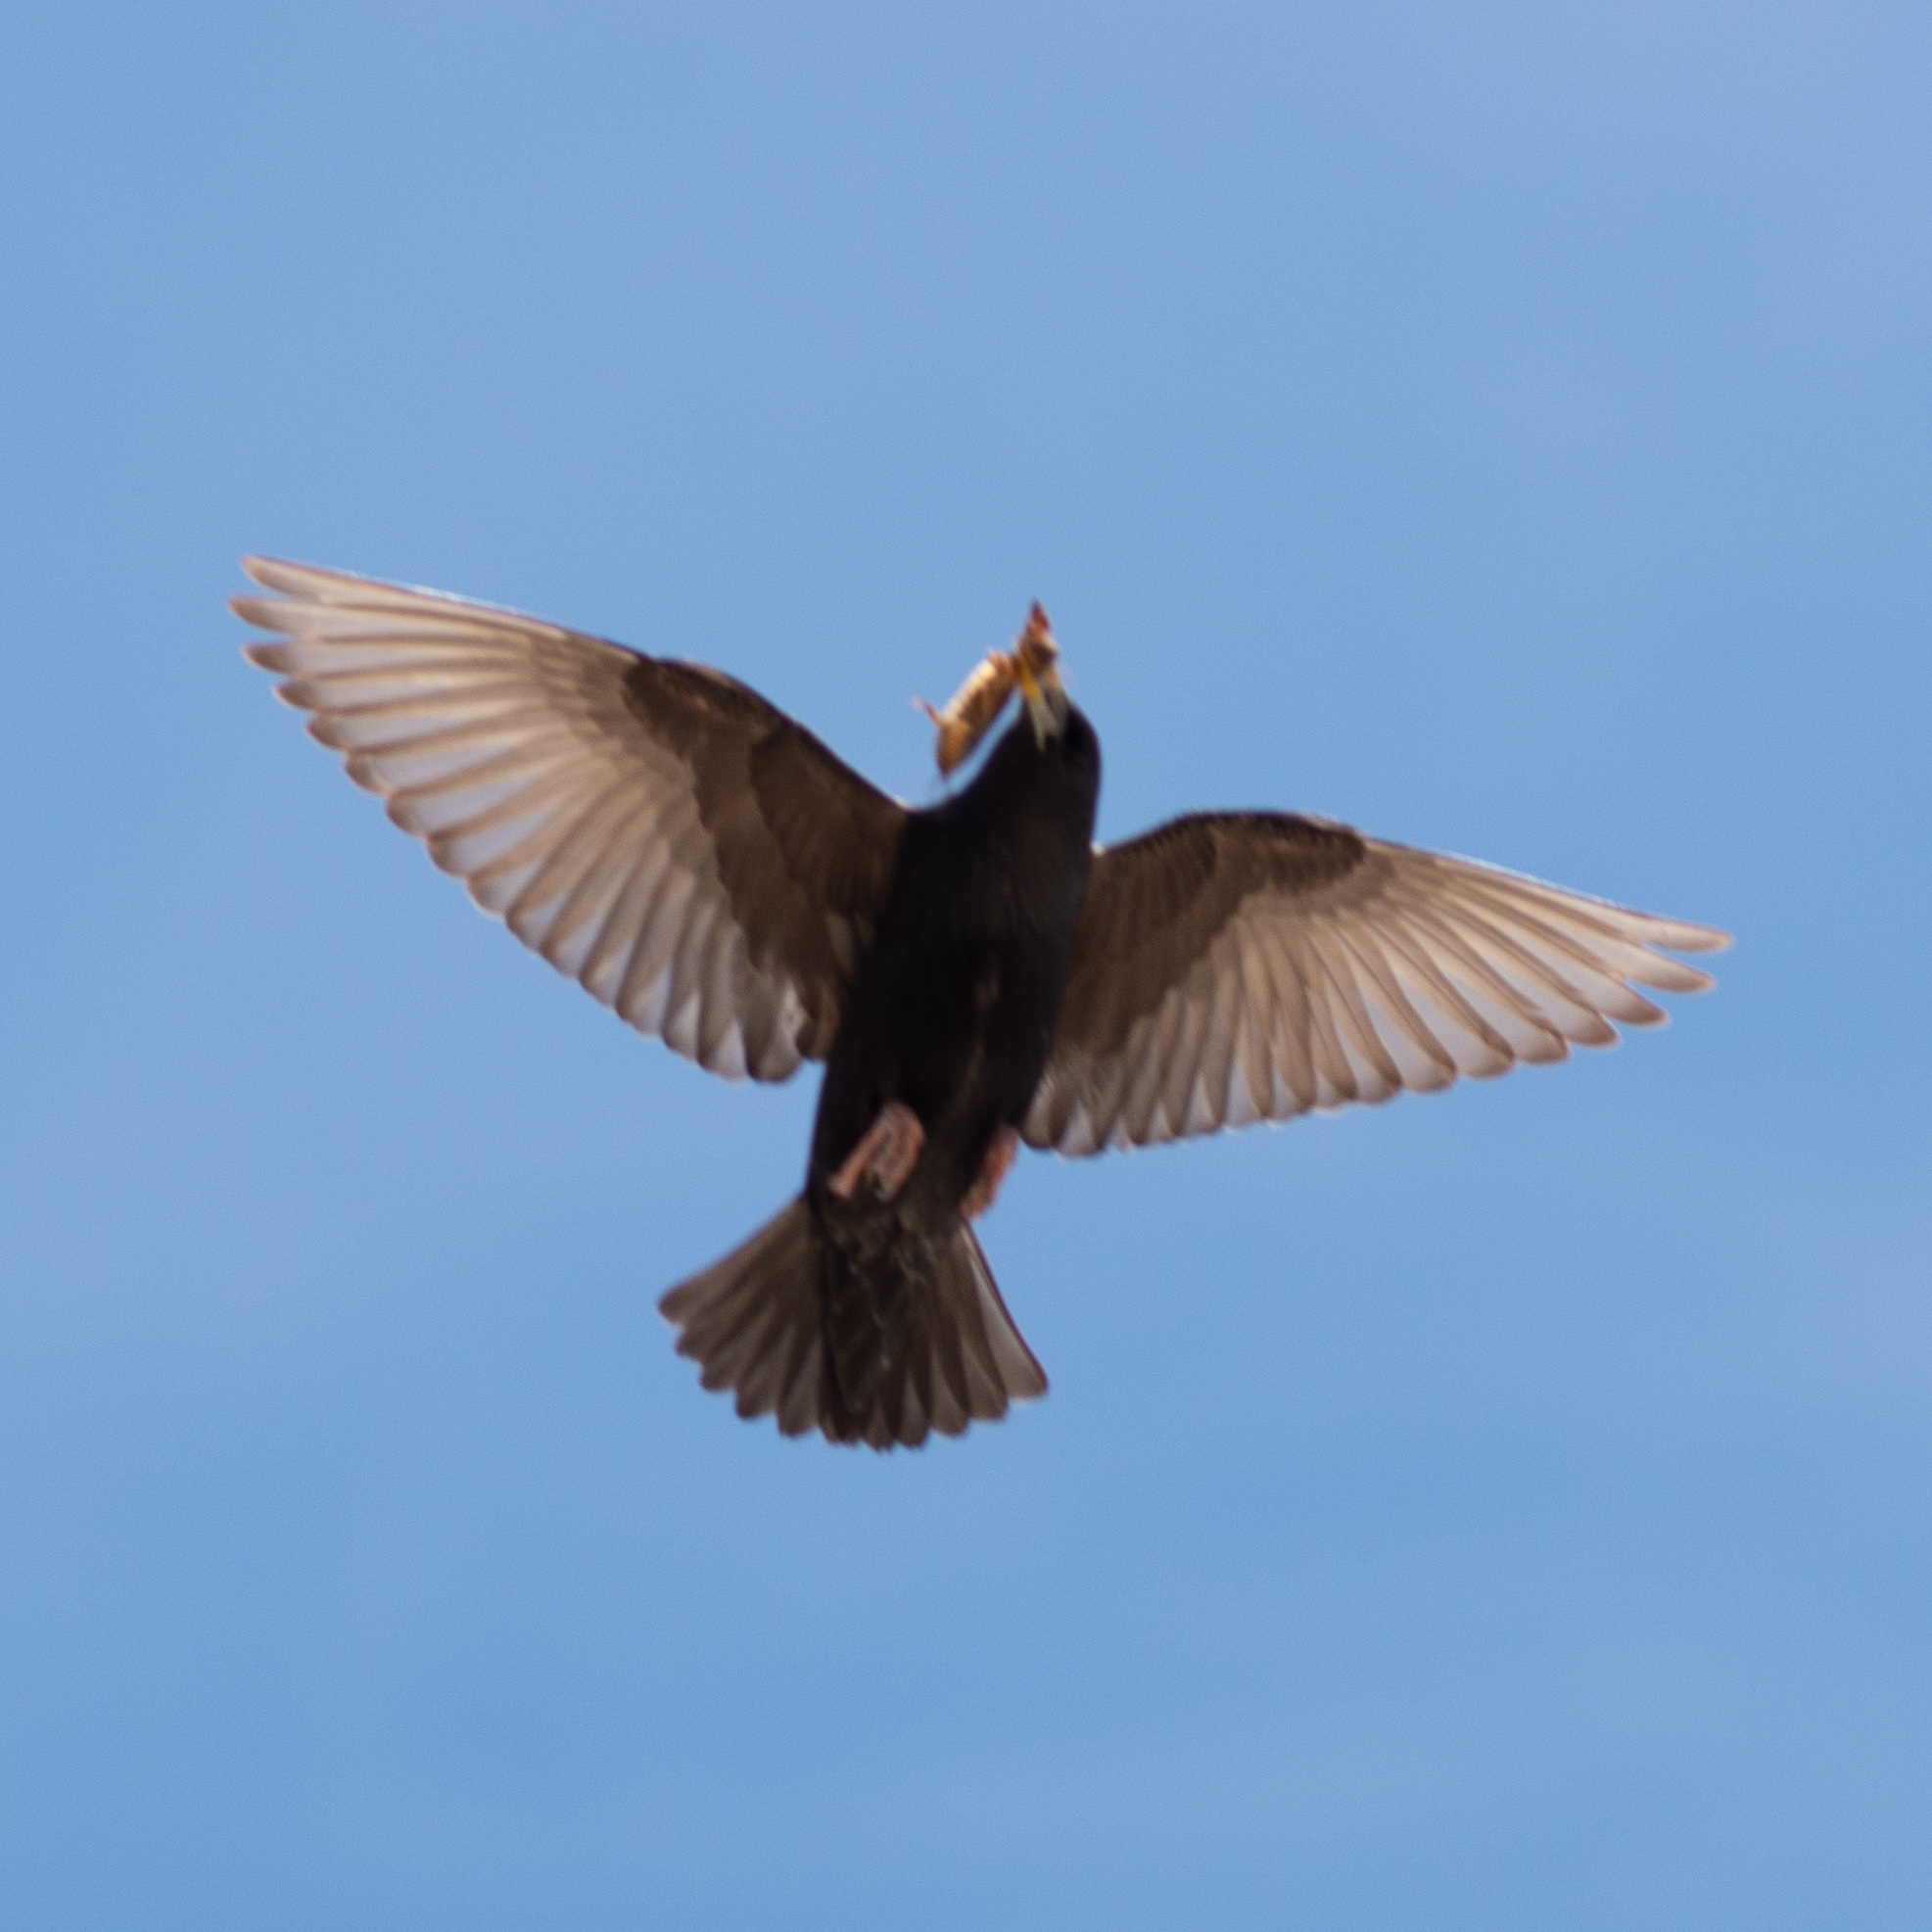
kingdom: Animalia
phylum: Chordata
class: Aves
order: Passeriformes
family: Sturnidae
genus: Sturnus
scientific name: Sturnus unicolor
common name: Spotless starling
